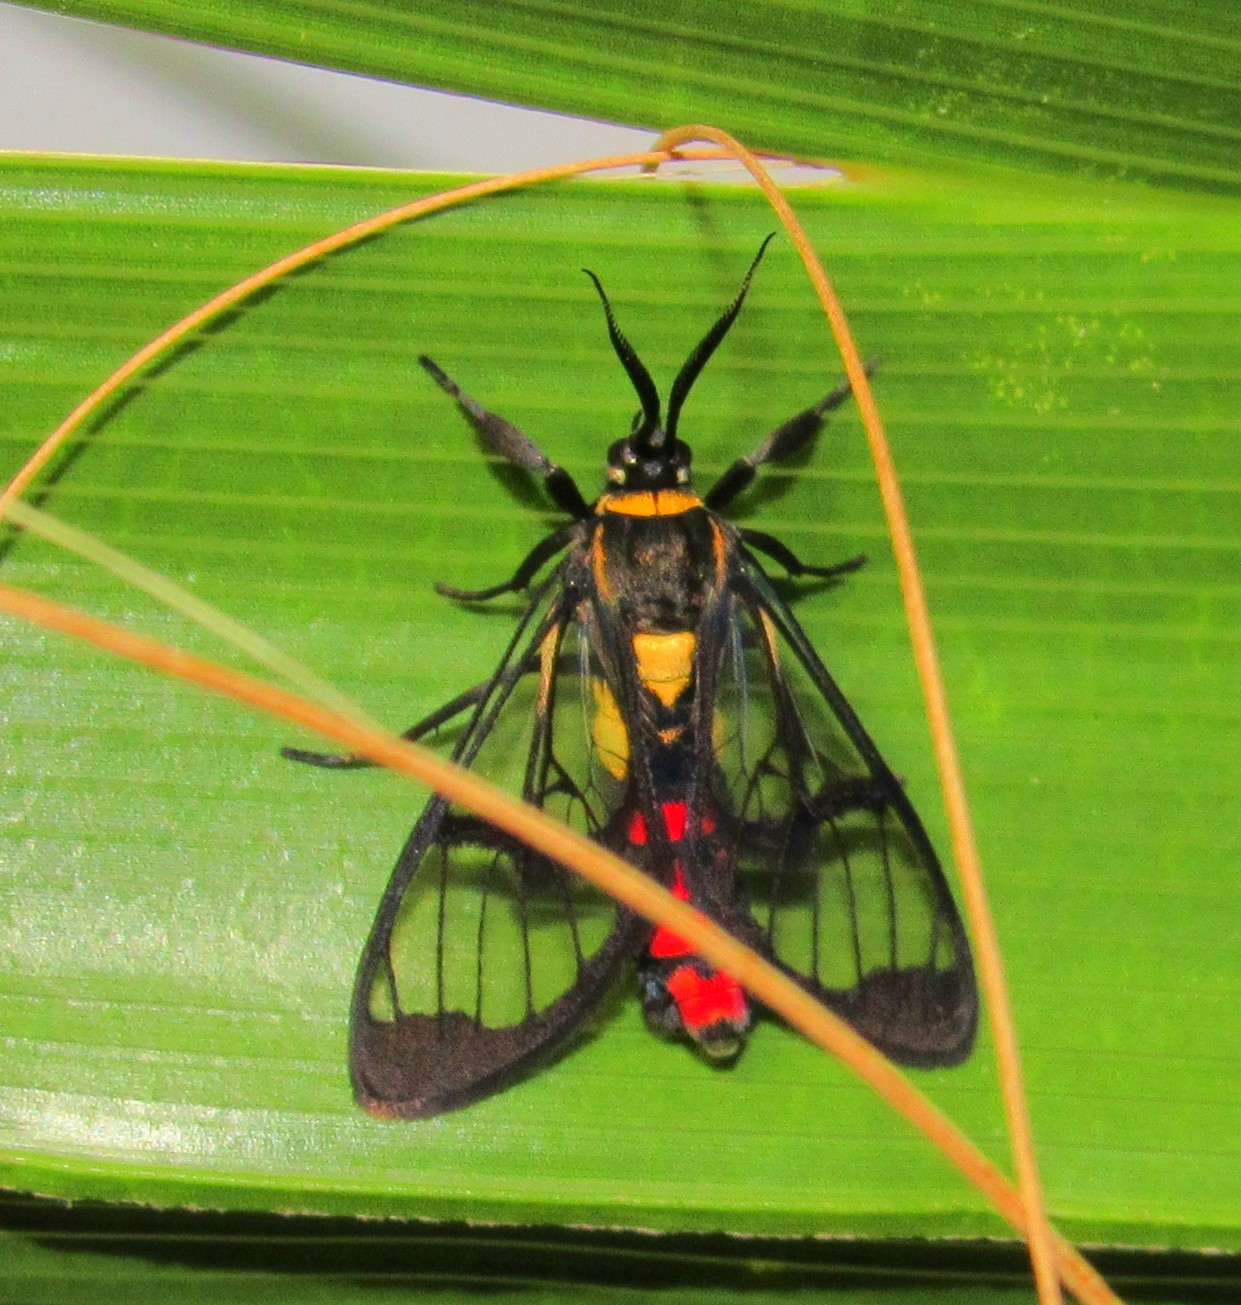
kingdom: Animalia
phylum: Arthropoda
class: Insecta
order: Lepidoptera
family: Erebidae
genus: Argyroeides
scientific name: Argyroeides sanguinea
